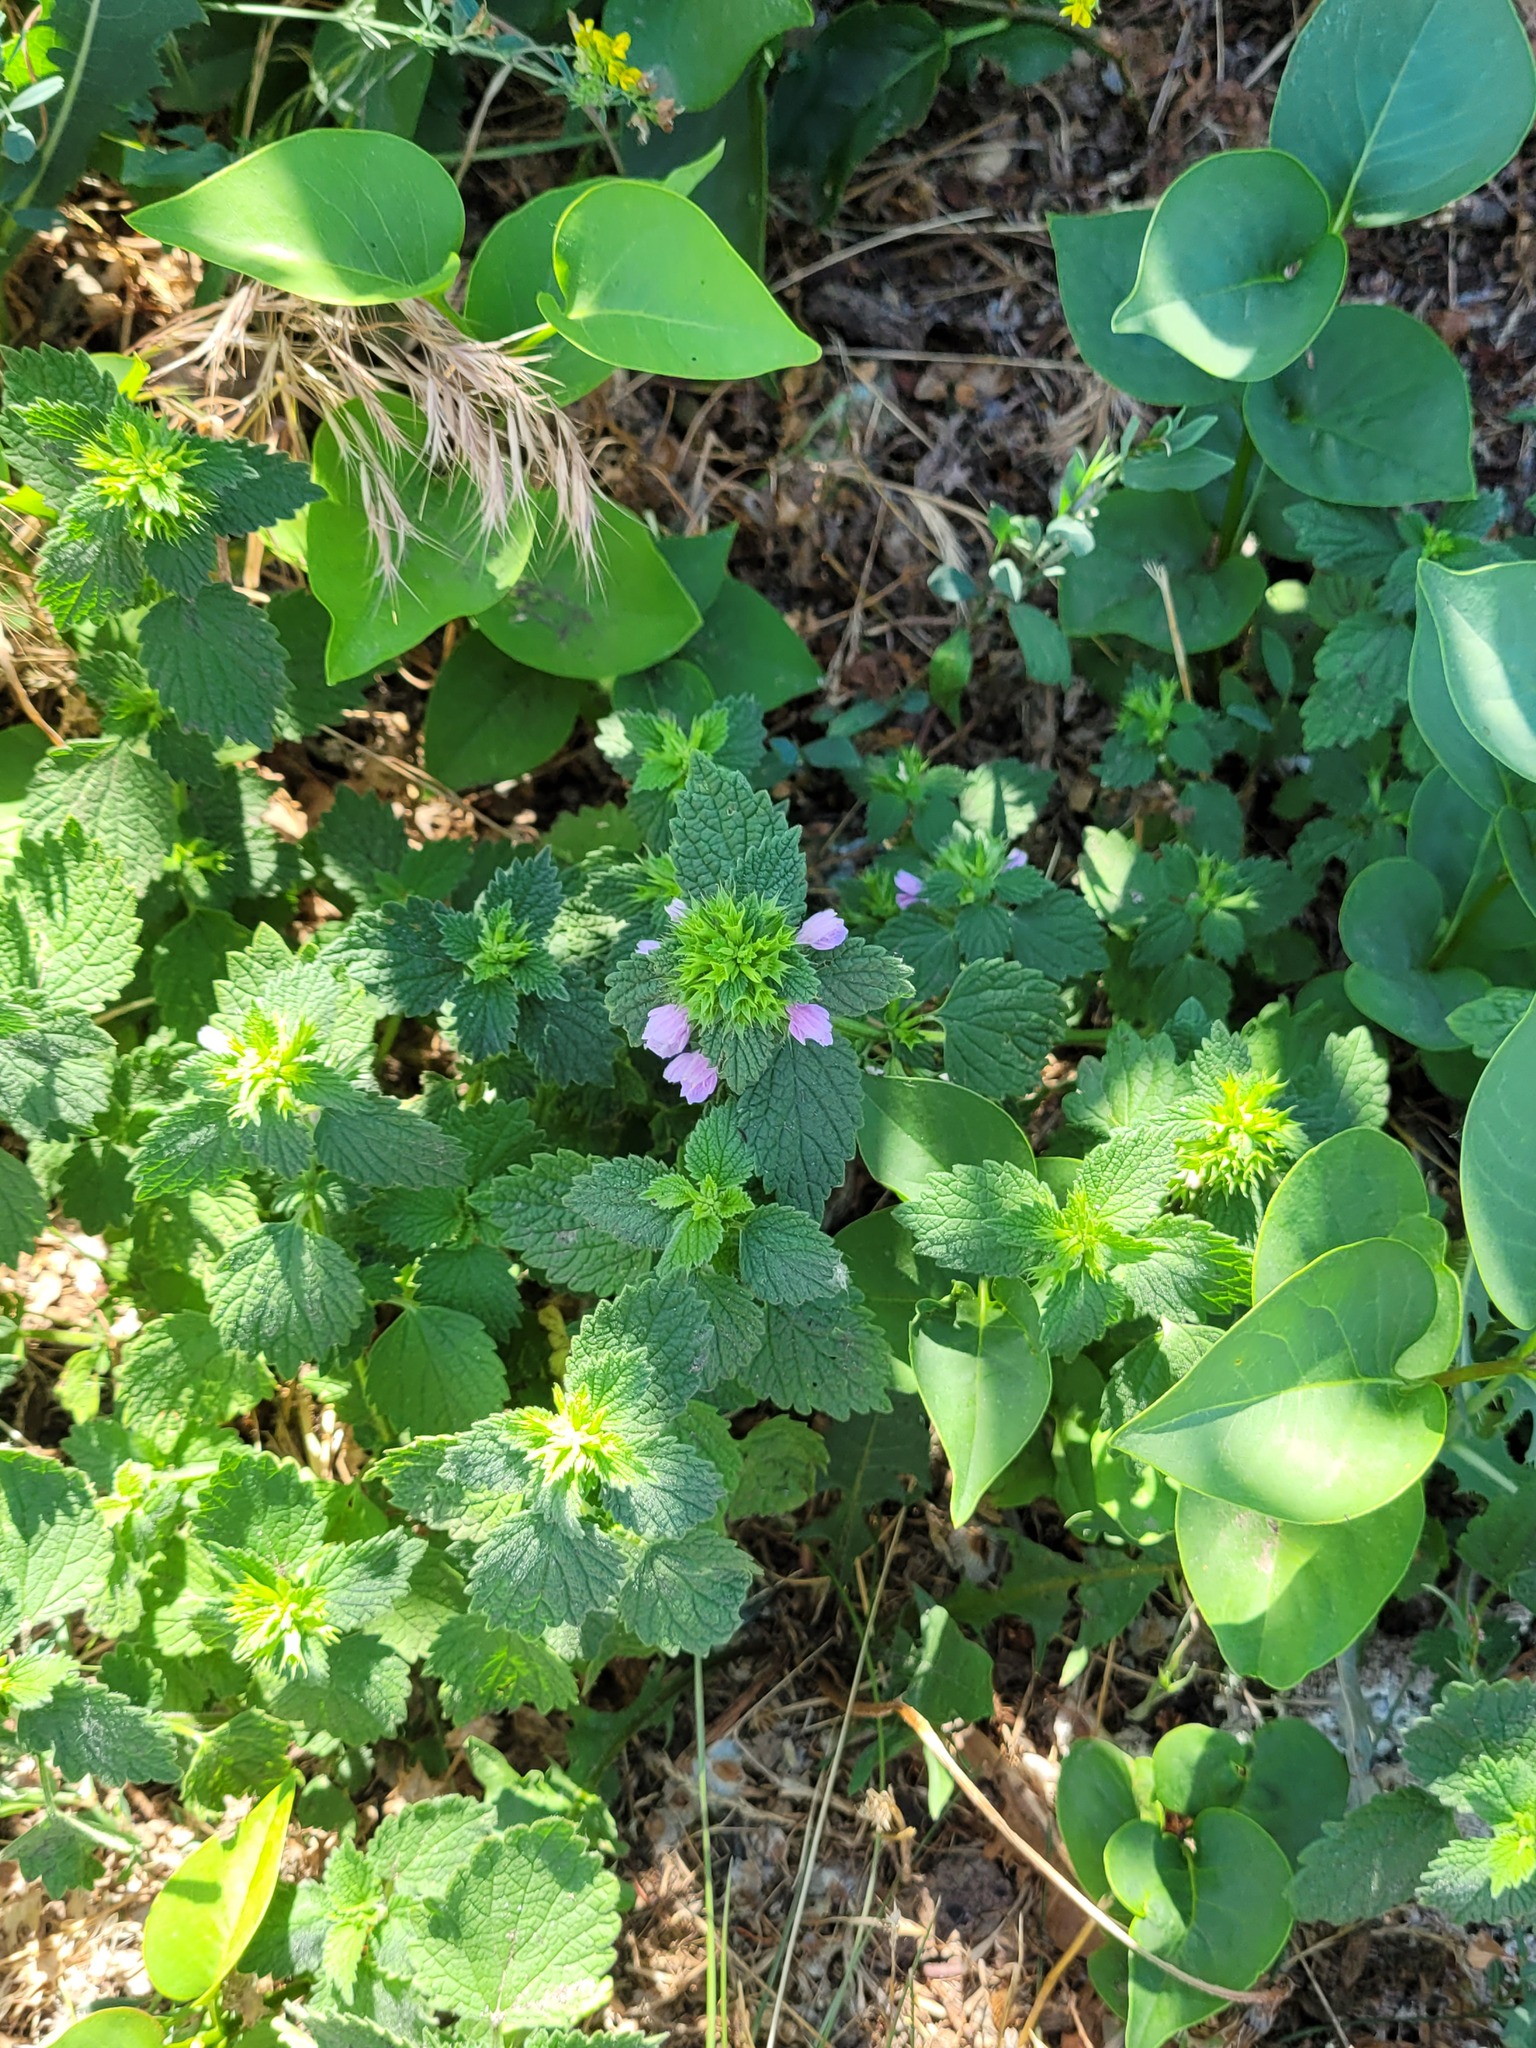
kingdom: Plantae
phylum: Tracheophyta
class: Magnoliopsida
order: Lamiales
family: Lamiaceae
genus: Ballota
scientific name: Ballota nigra
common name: Black horehound
